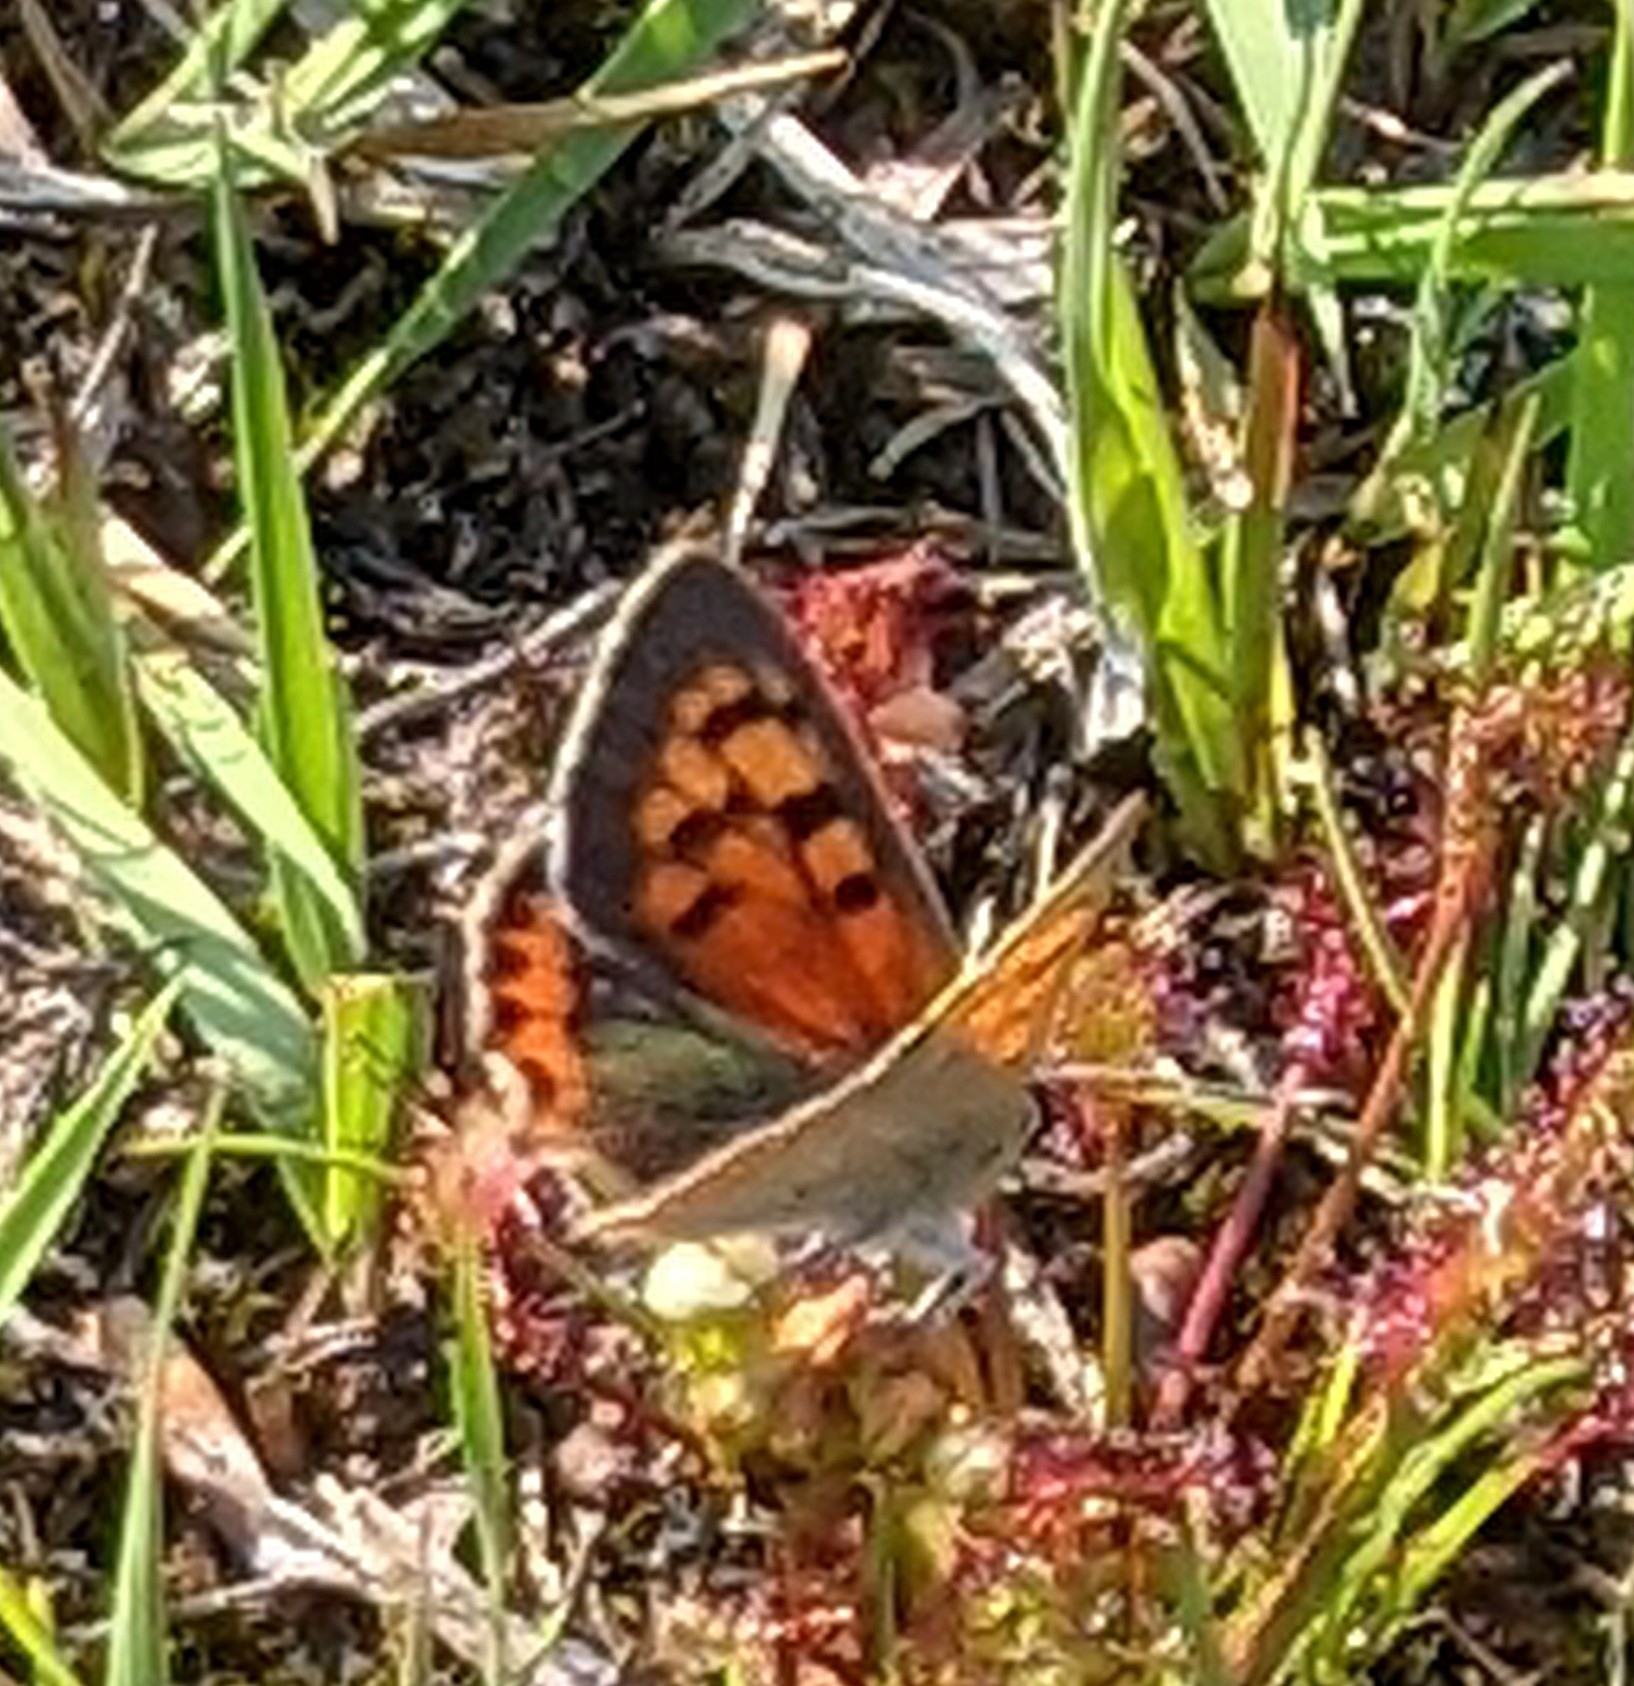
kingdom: Animalia
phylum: Arthropoda
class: Insecta
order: Lepidoptera
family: Lycaenidae
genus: Lycaena
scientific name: Lycaena phlaeas
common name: Small copper
